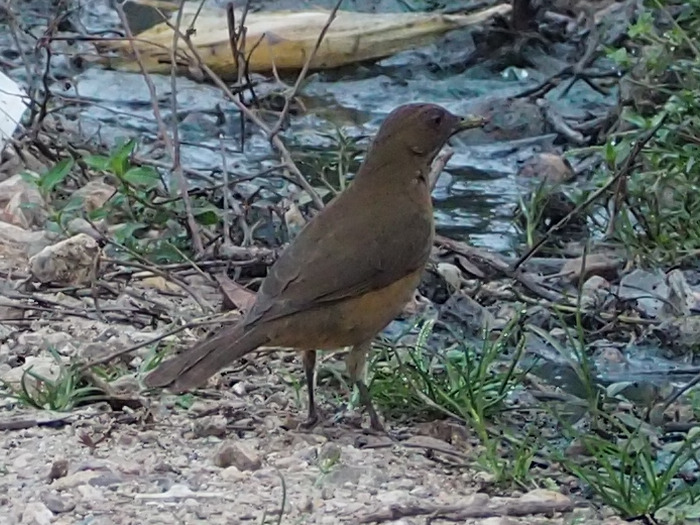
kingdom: Animalia
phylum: Chordata
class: Aves
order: Passeriformes
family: Turdidae
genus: Turdus
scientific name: Turdus grayi
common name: Clay-colored thrush
